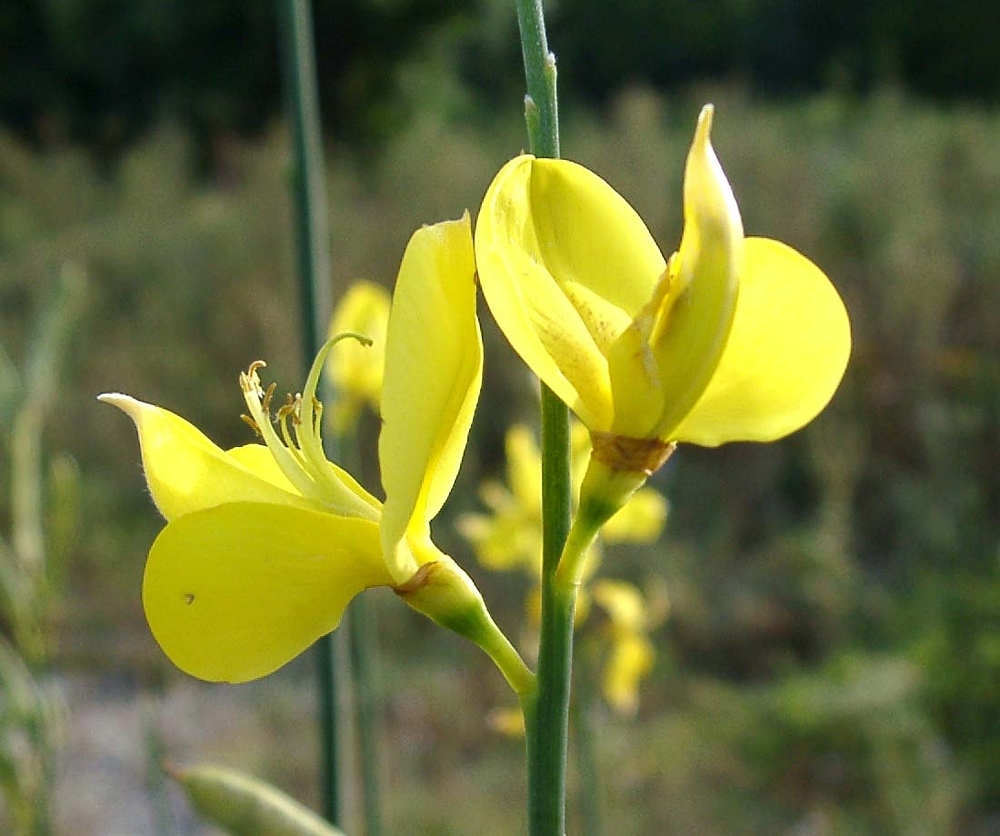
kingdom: Plantae
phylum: Tracheophyta
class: Magnoliopsida
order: Fabales
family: Fabaceae
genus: Spartium
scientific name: Spartium junceum
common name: Spanish broom
